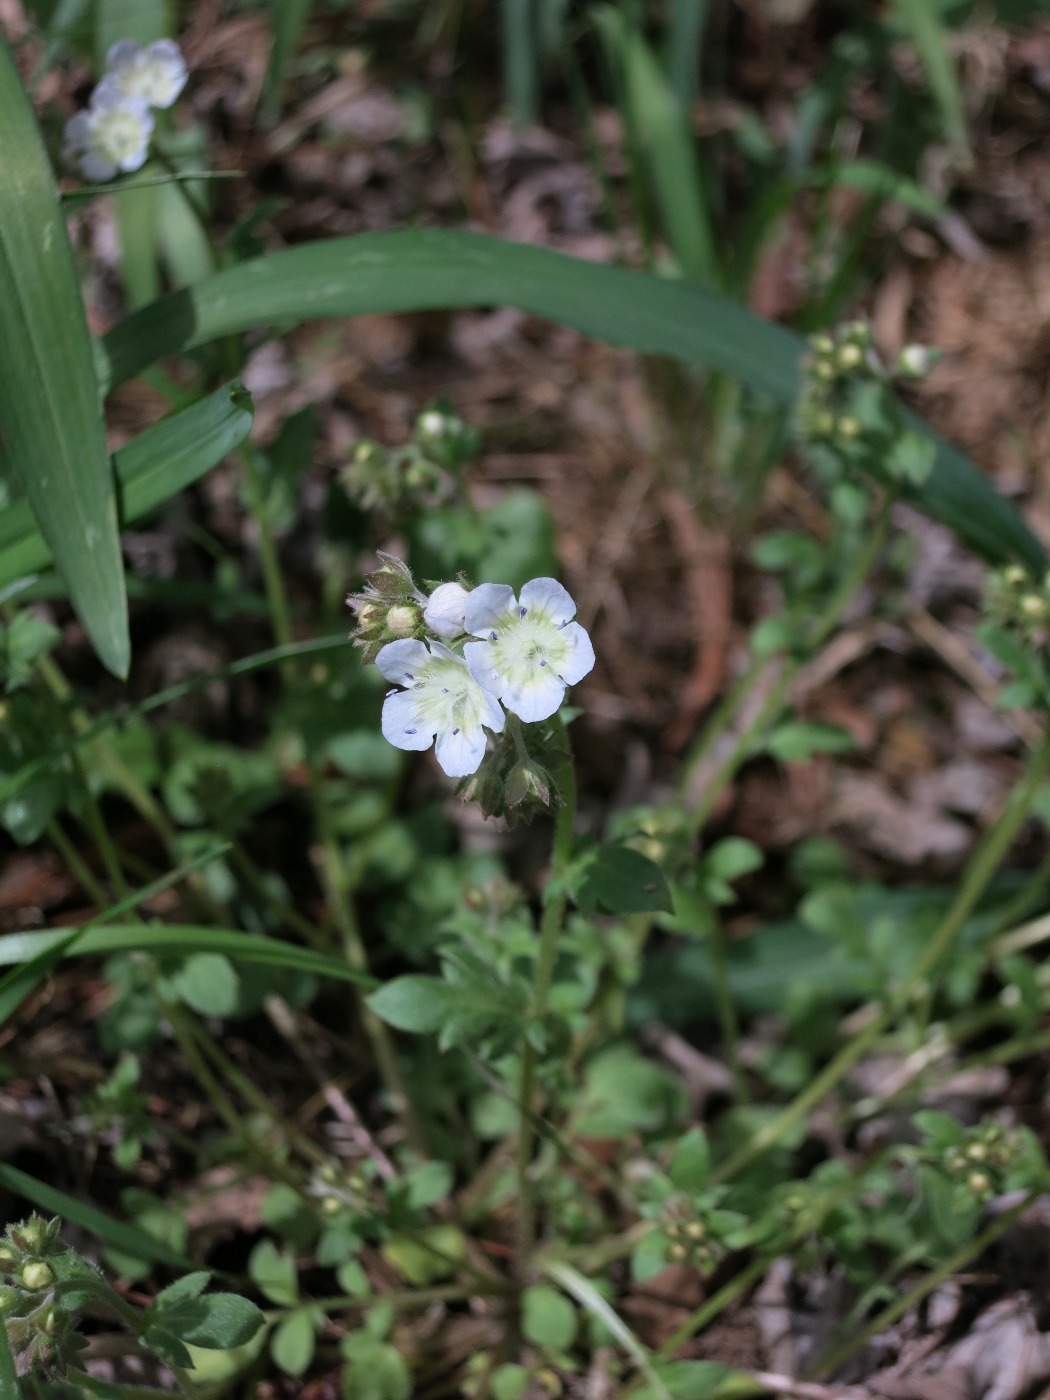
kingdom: Plantae
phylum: Tracheophyta
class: Magnoliopsida
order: Boraginales
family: Hydrophyllaceae
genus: Phacelia
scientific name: Phacelia dubia
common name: Appalachian phacelia
